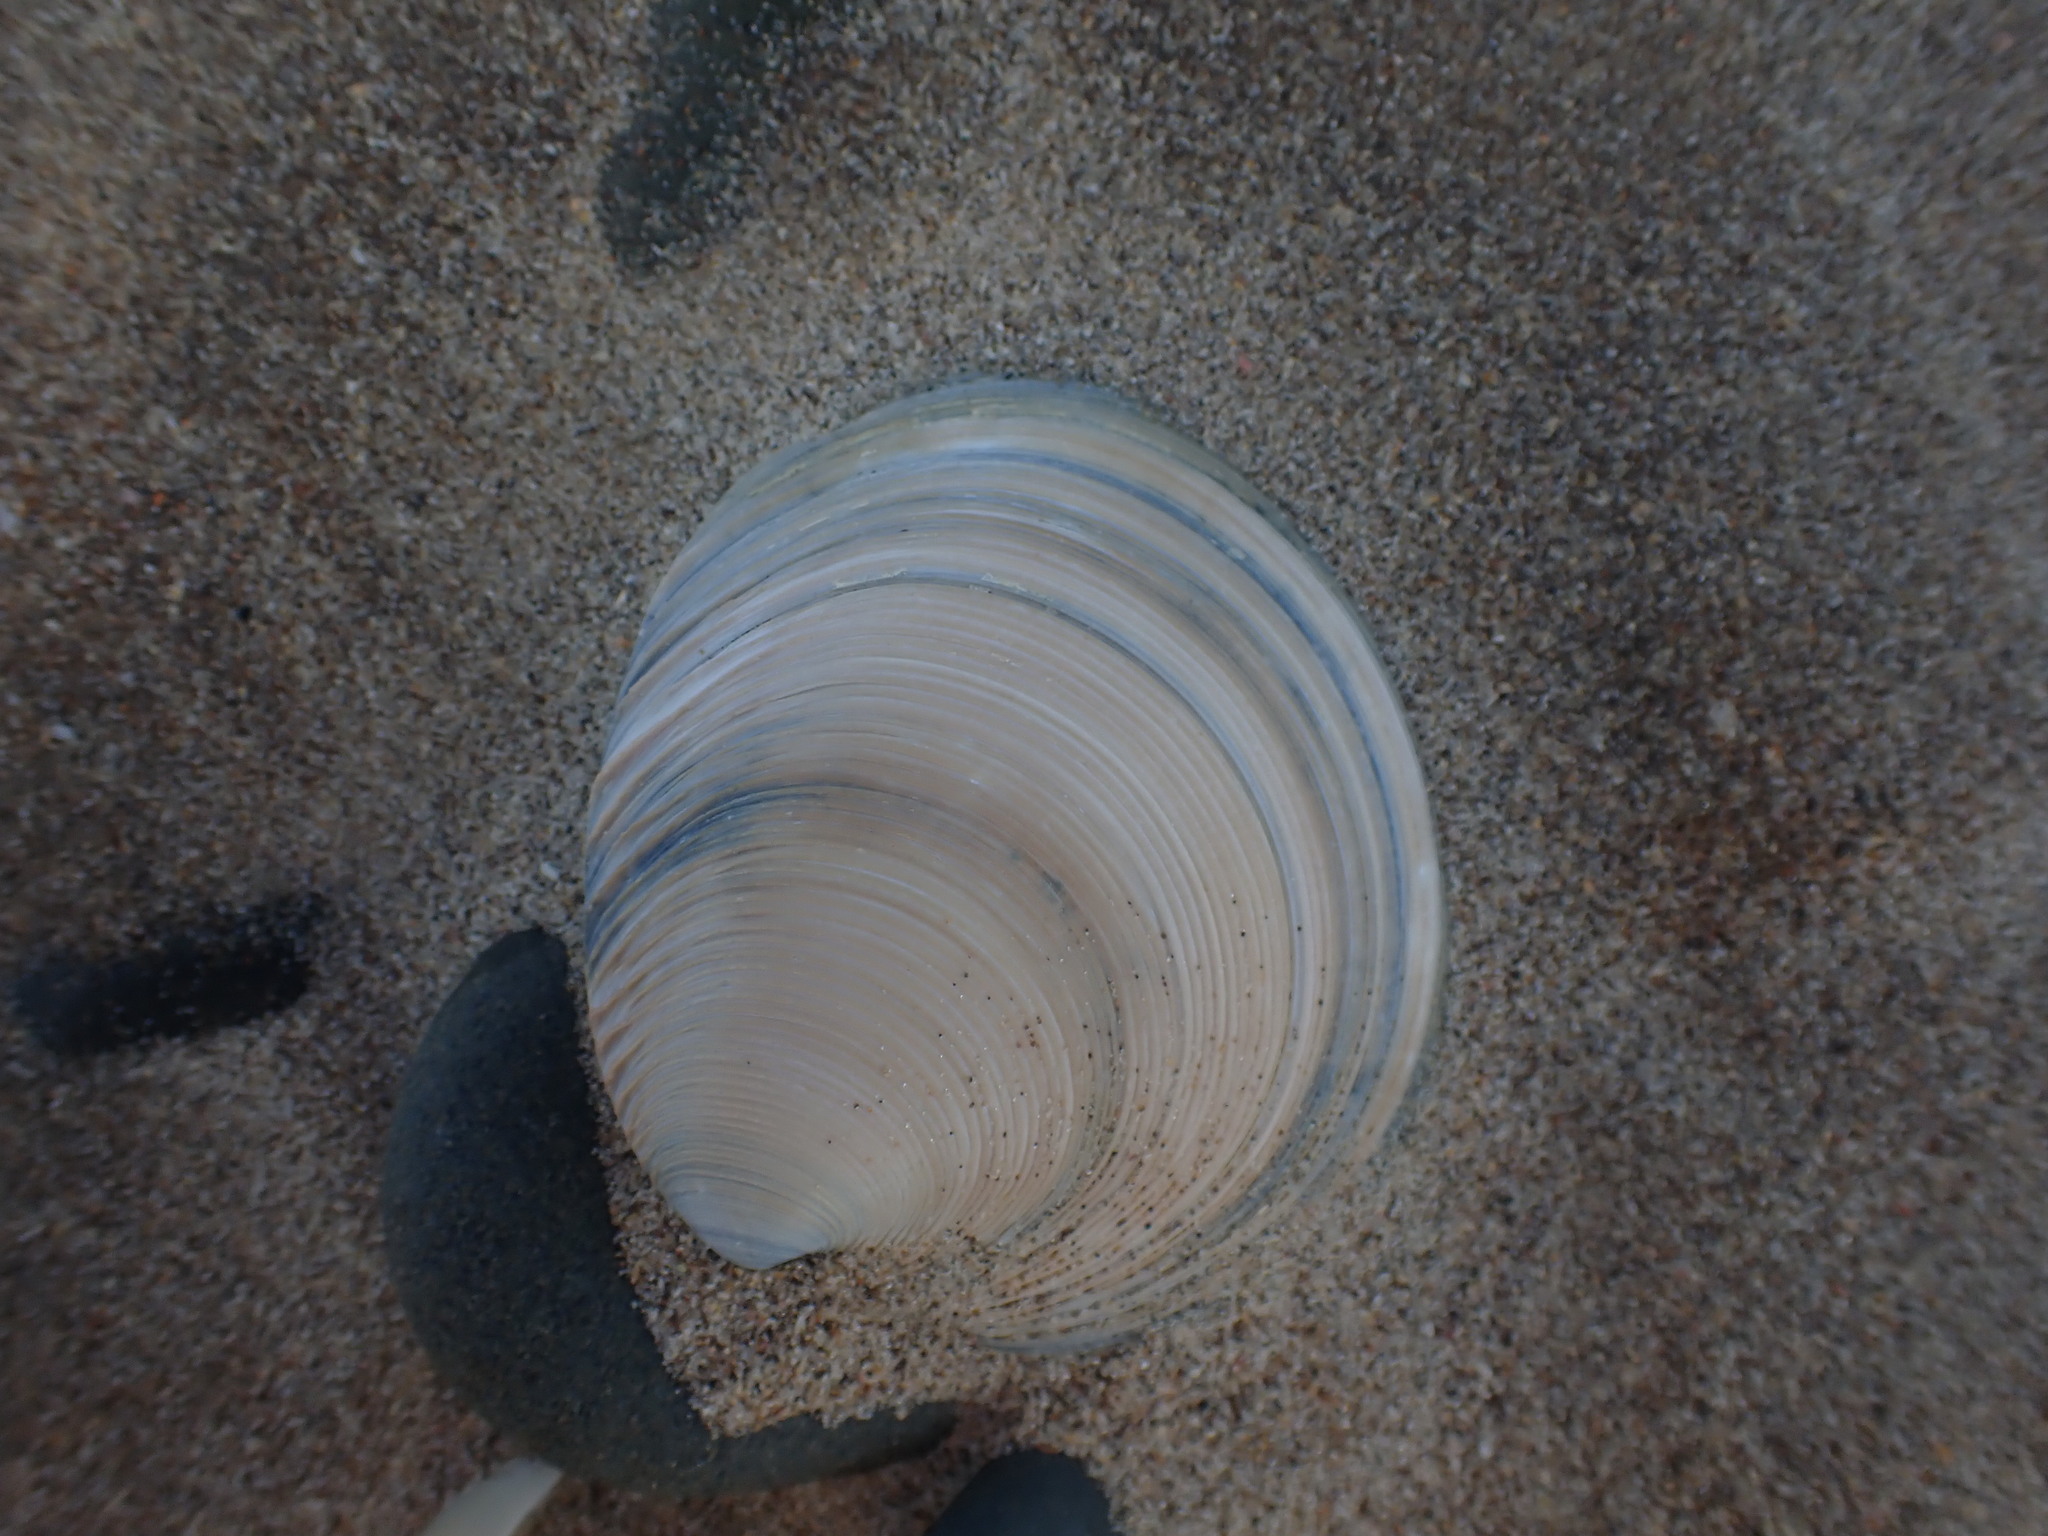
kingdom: Animalia
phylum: Mollusca
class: Bivalvia
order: Venerida
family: Veneridae
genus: Dosinia
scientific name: Dosinia anus
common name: Old-woman dosinia
